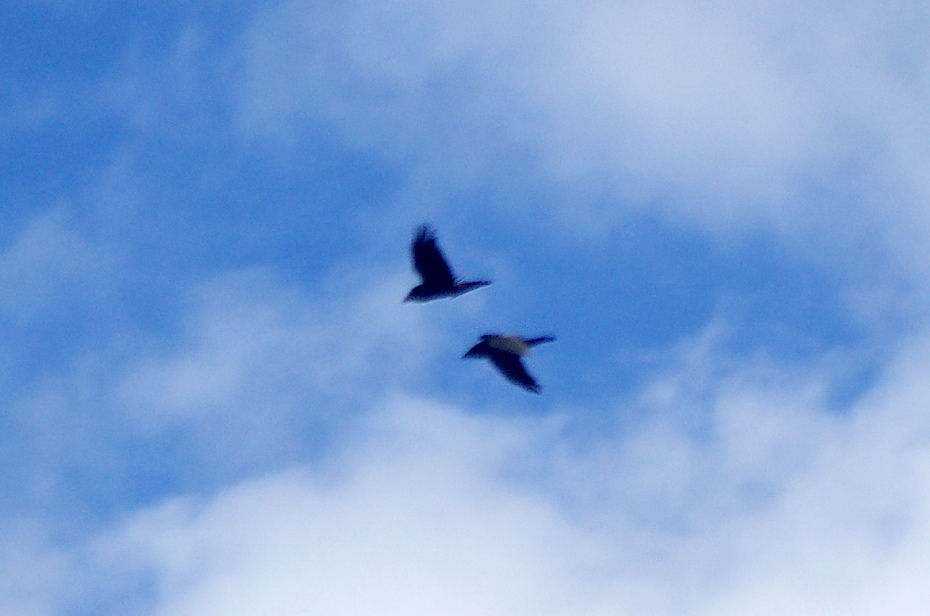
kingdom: Animalia
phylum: Chordata
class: Aves
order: Passeriformes
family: Corvidae
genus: Corvus
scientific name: Corvus corax
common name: Common raven
